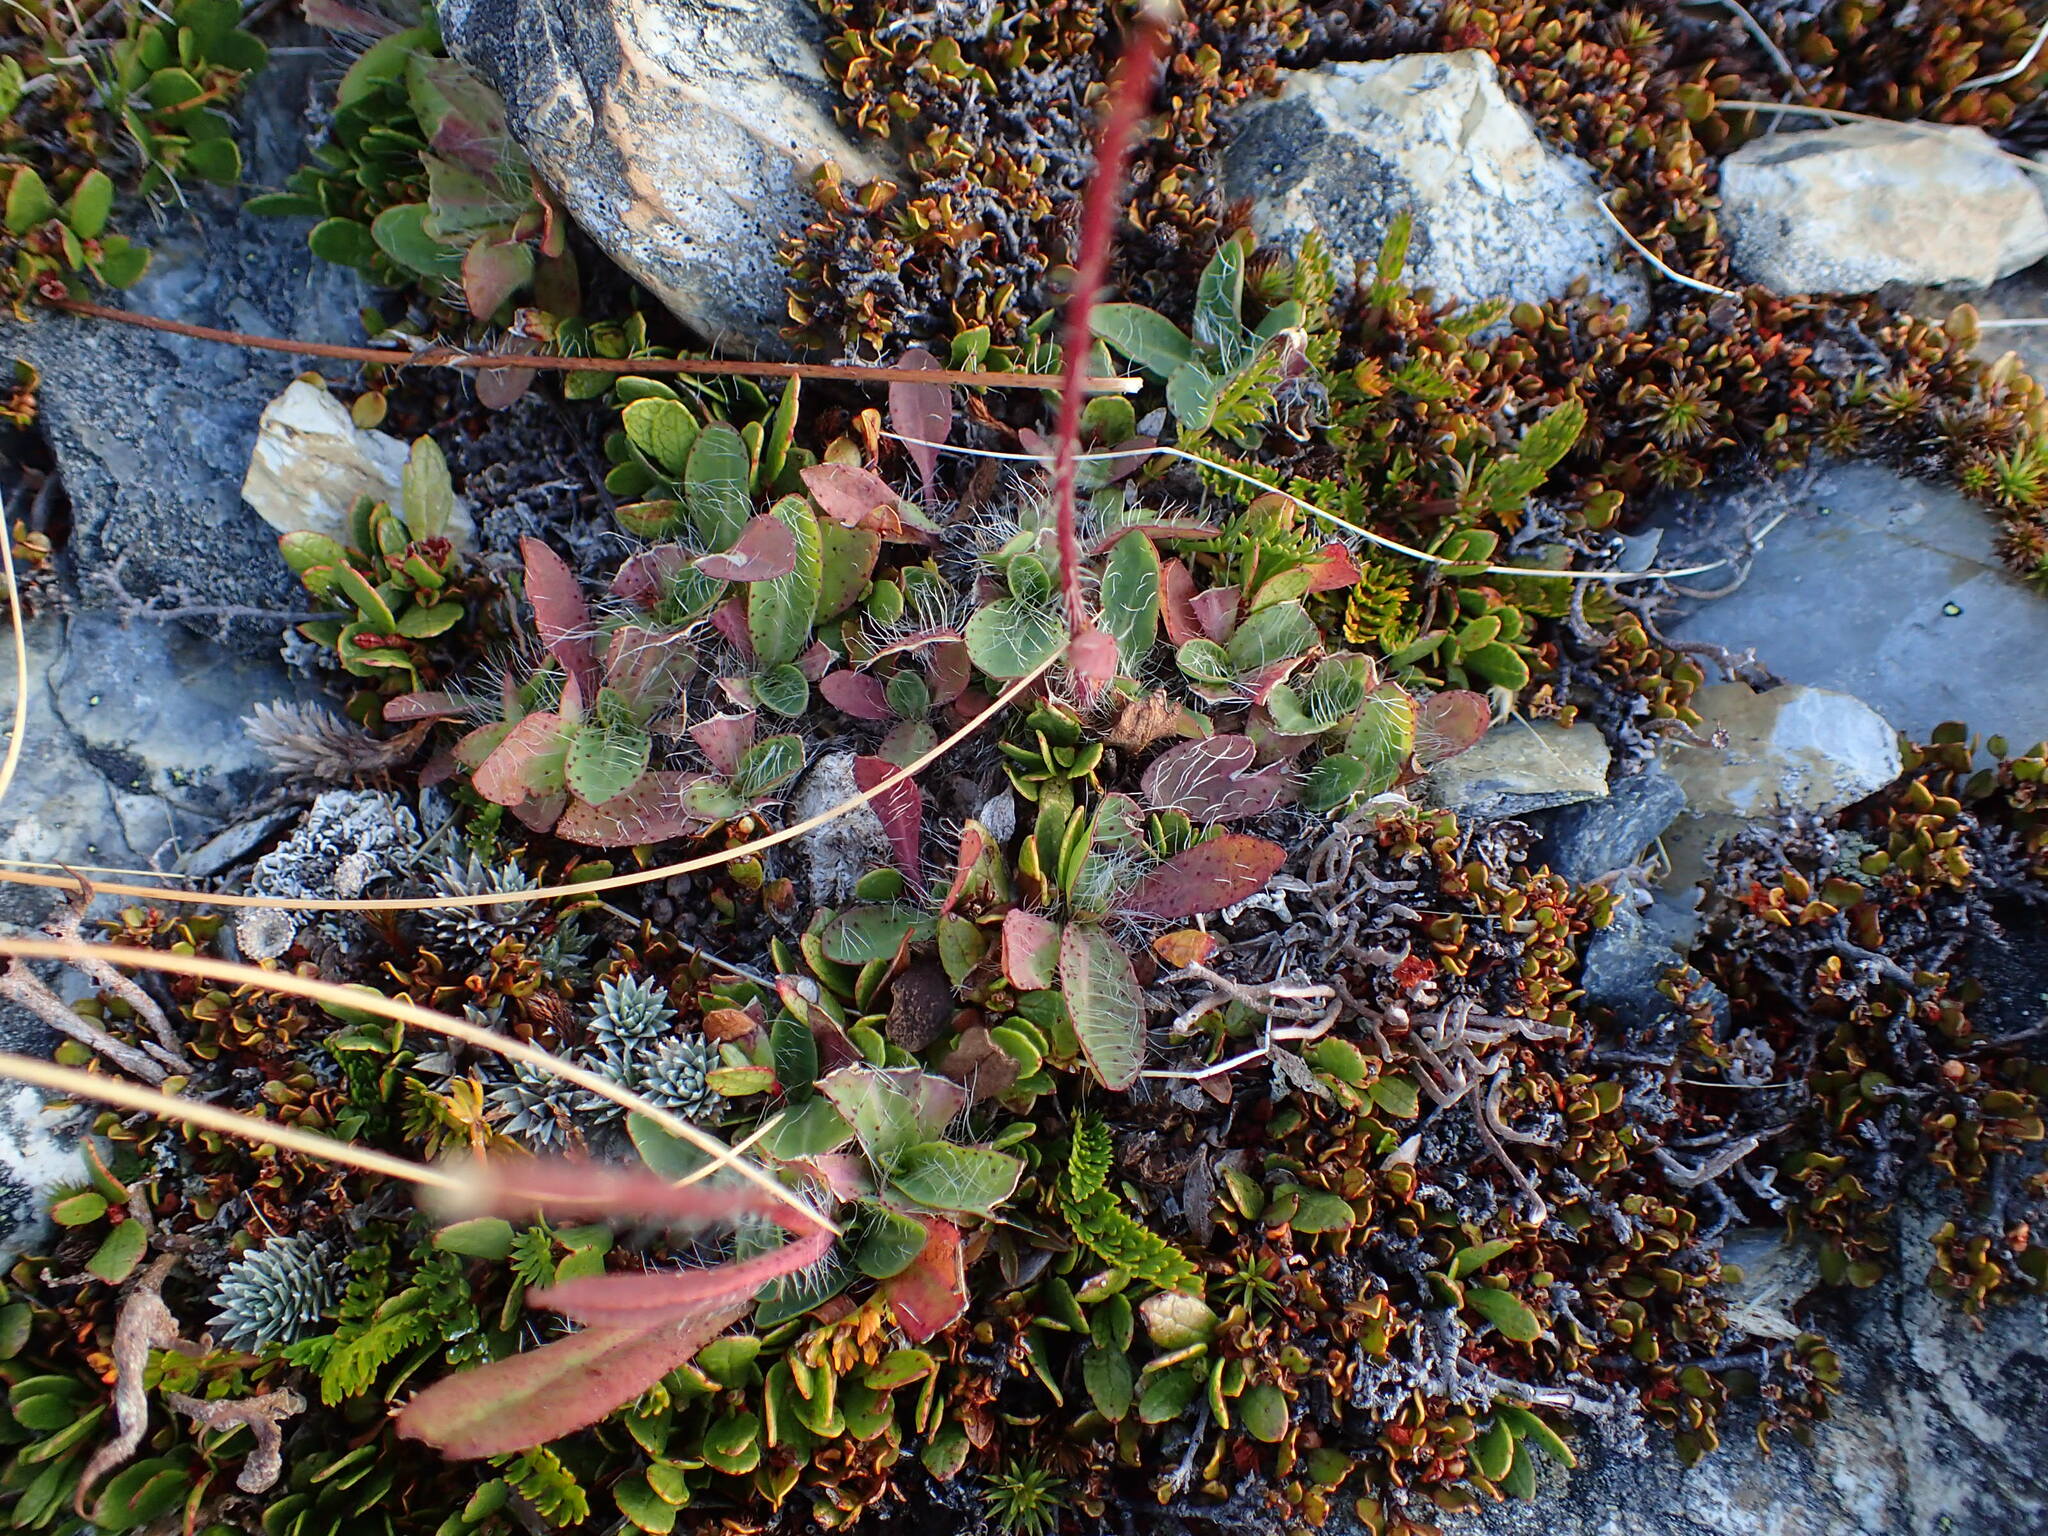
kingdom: Plantae
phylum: Tracheophyta
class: Magnoliopsida
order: Asterales
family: Asteraceae
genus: Pilosella
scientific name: Pilosella piloselloides
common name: Glaucous king-devil
